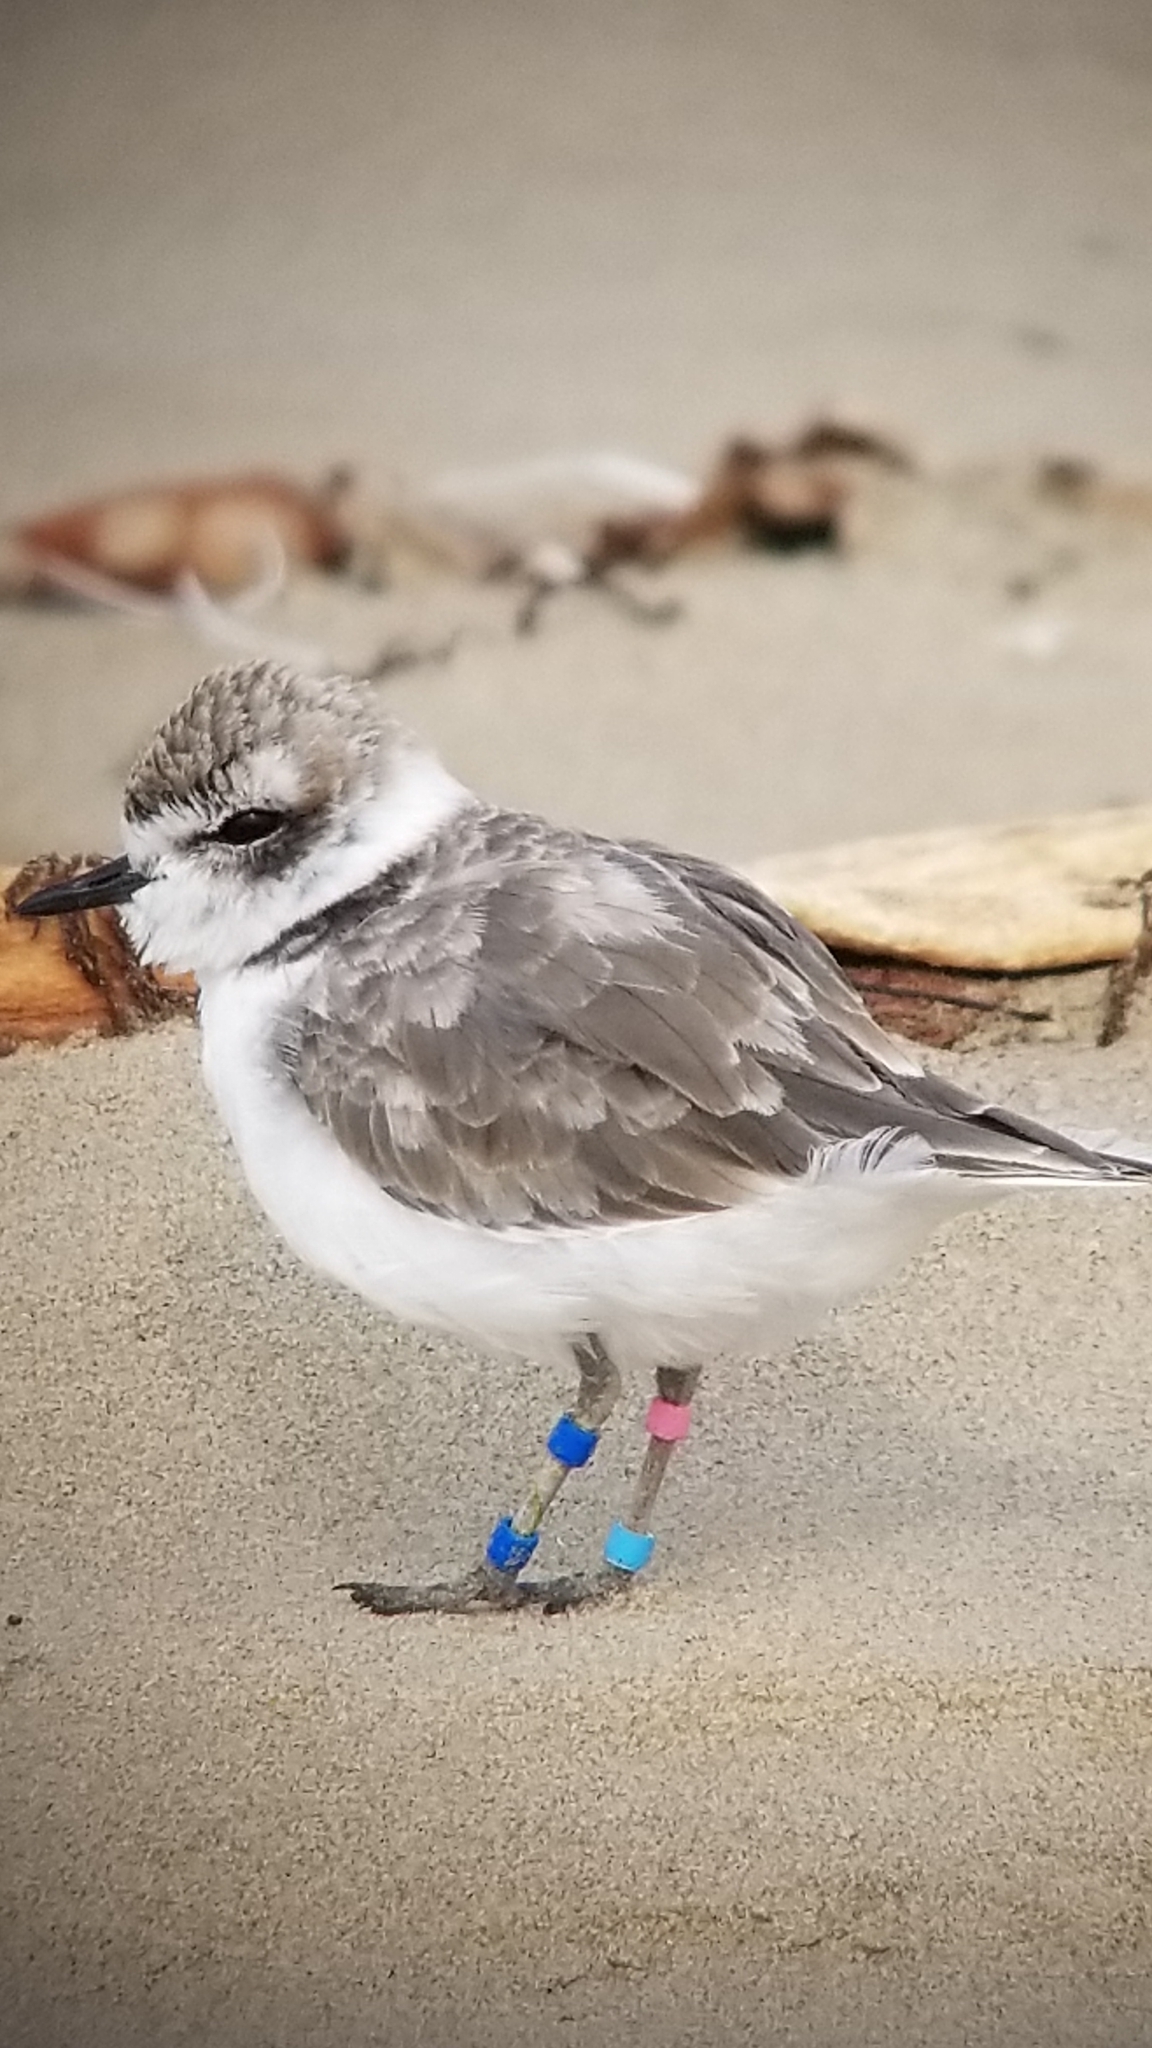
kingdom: Animalia
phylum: Chordata
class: Aves
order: Charadriiformes
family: Charadriidae
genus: Anarhynchus
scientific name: Anarhynchus
